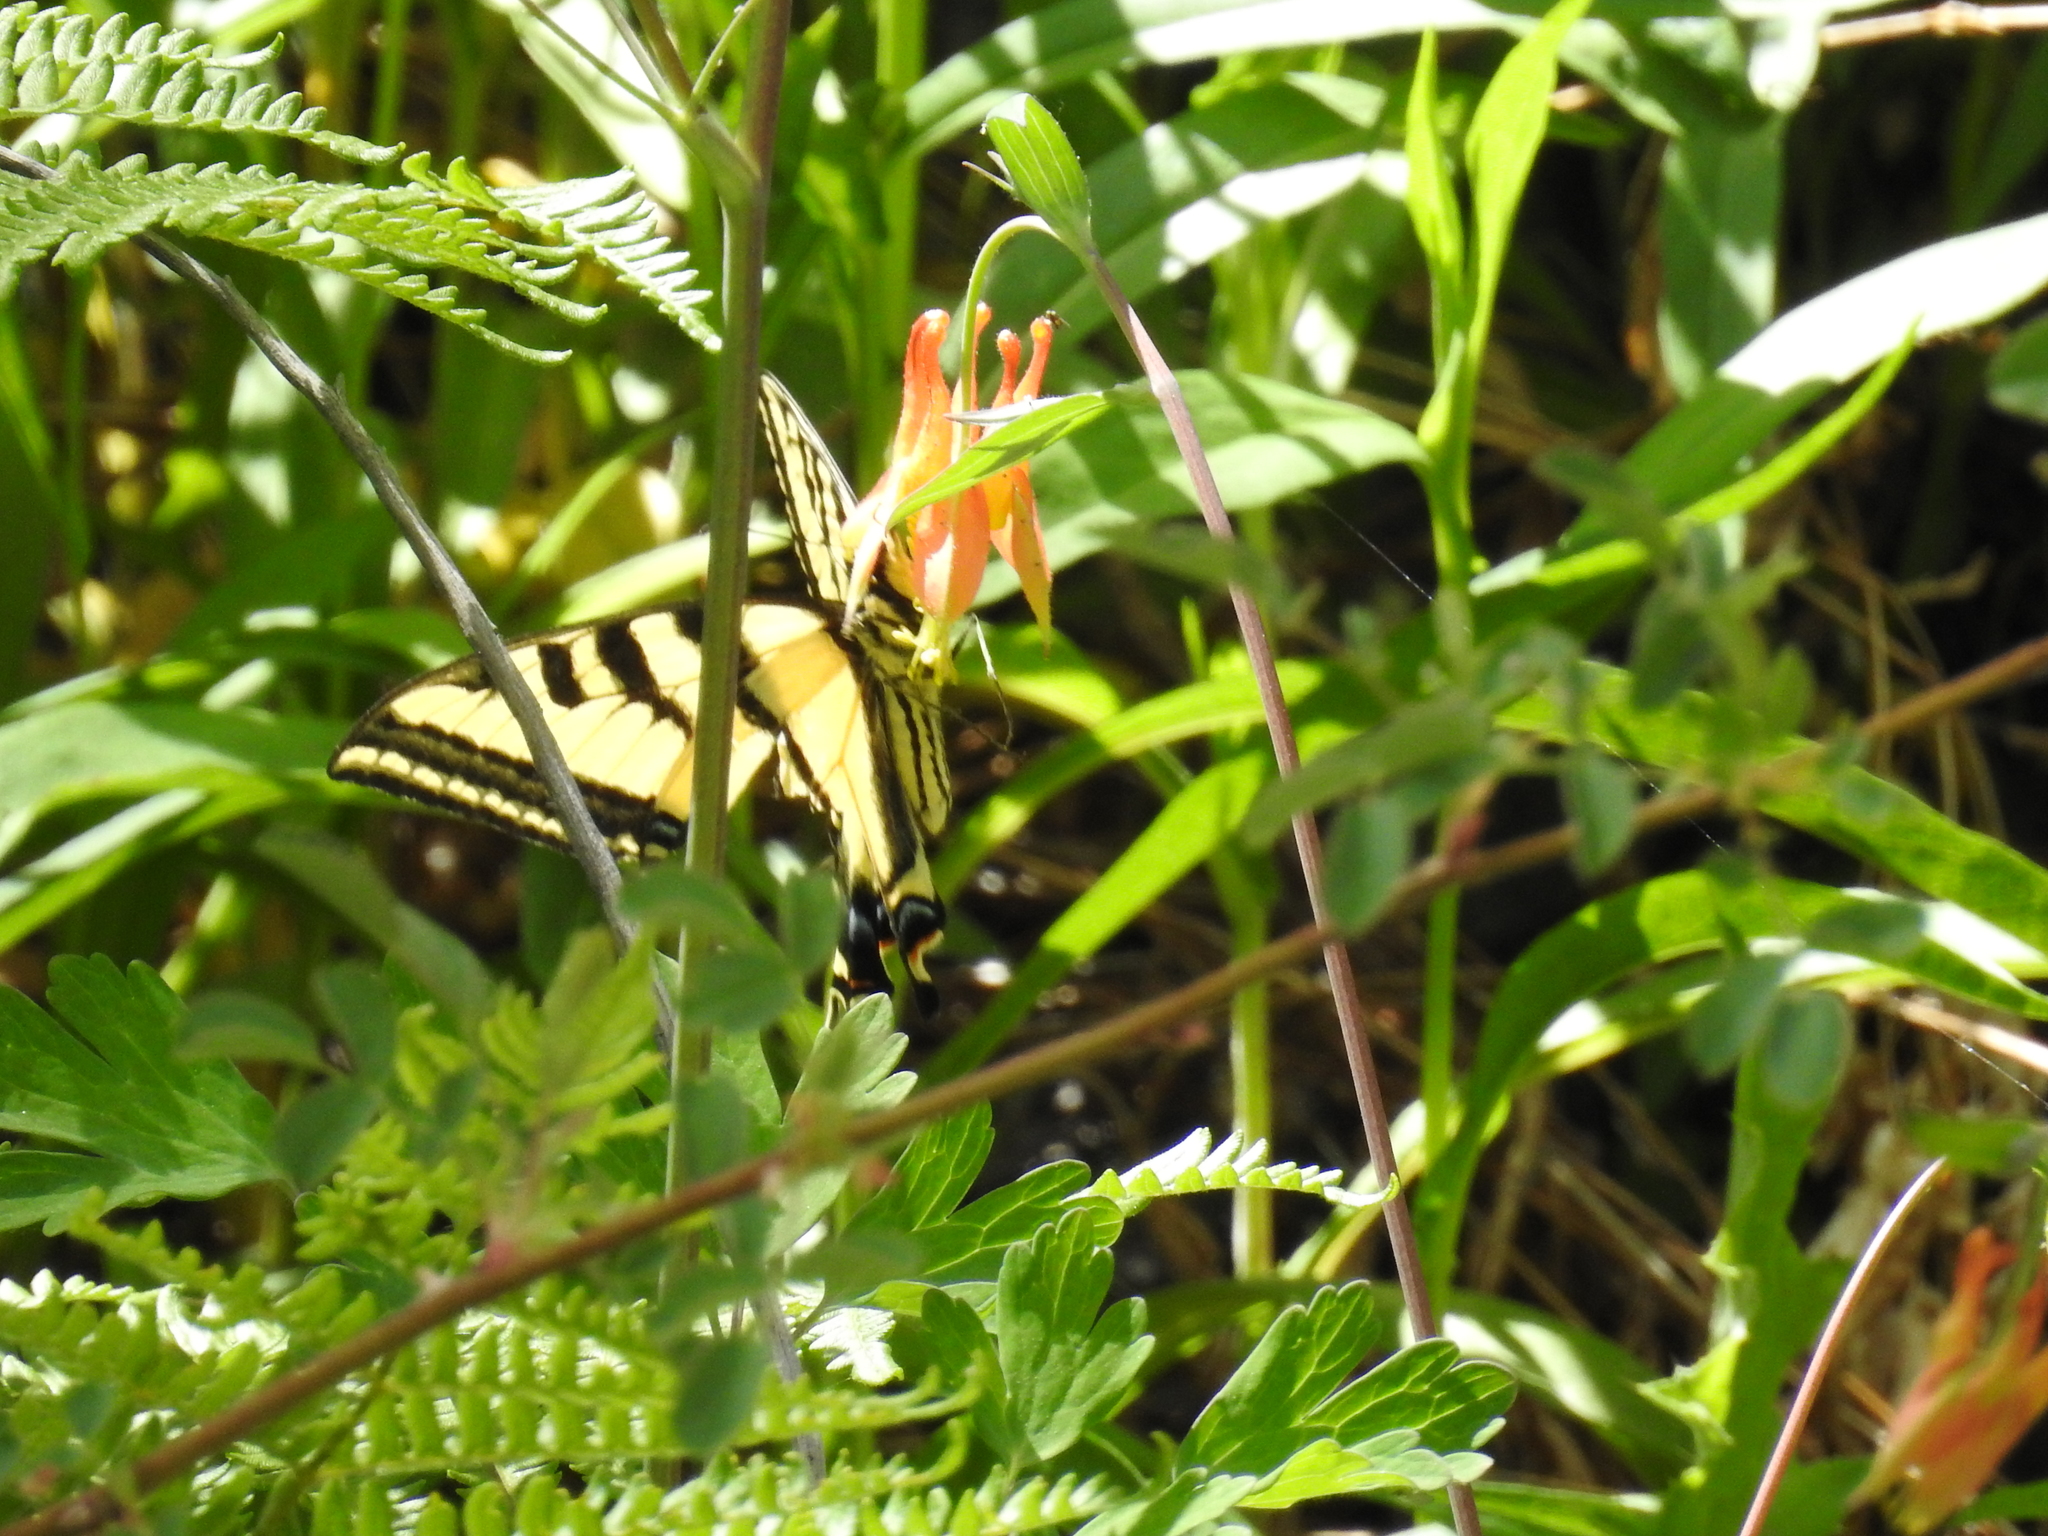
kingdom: Animalia
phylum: Arthropoda
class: Insecta
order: Lepidoptera
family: Papilionidae
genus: Papilio
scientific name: Papilio rutulus
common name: Western tiger swallowtail
